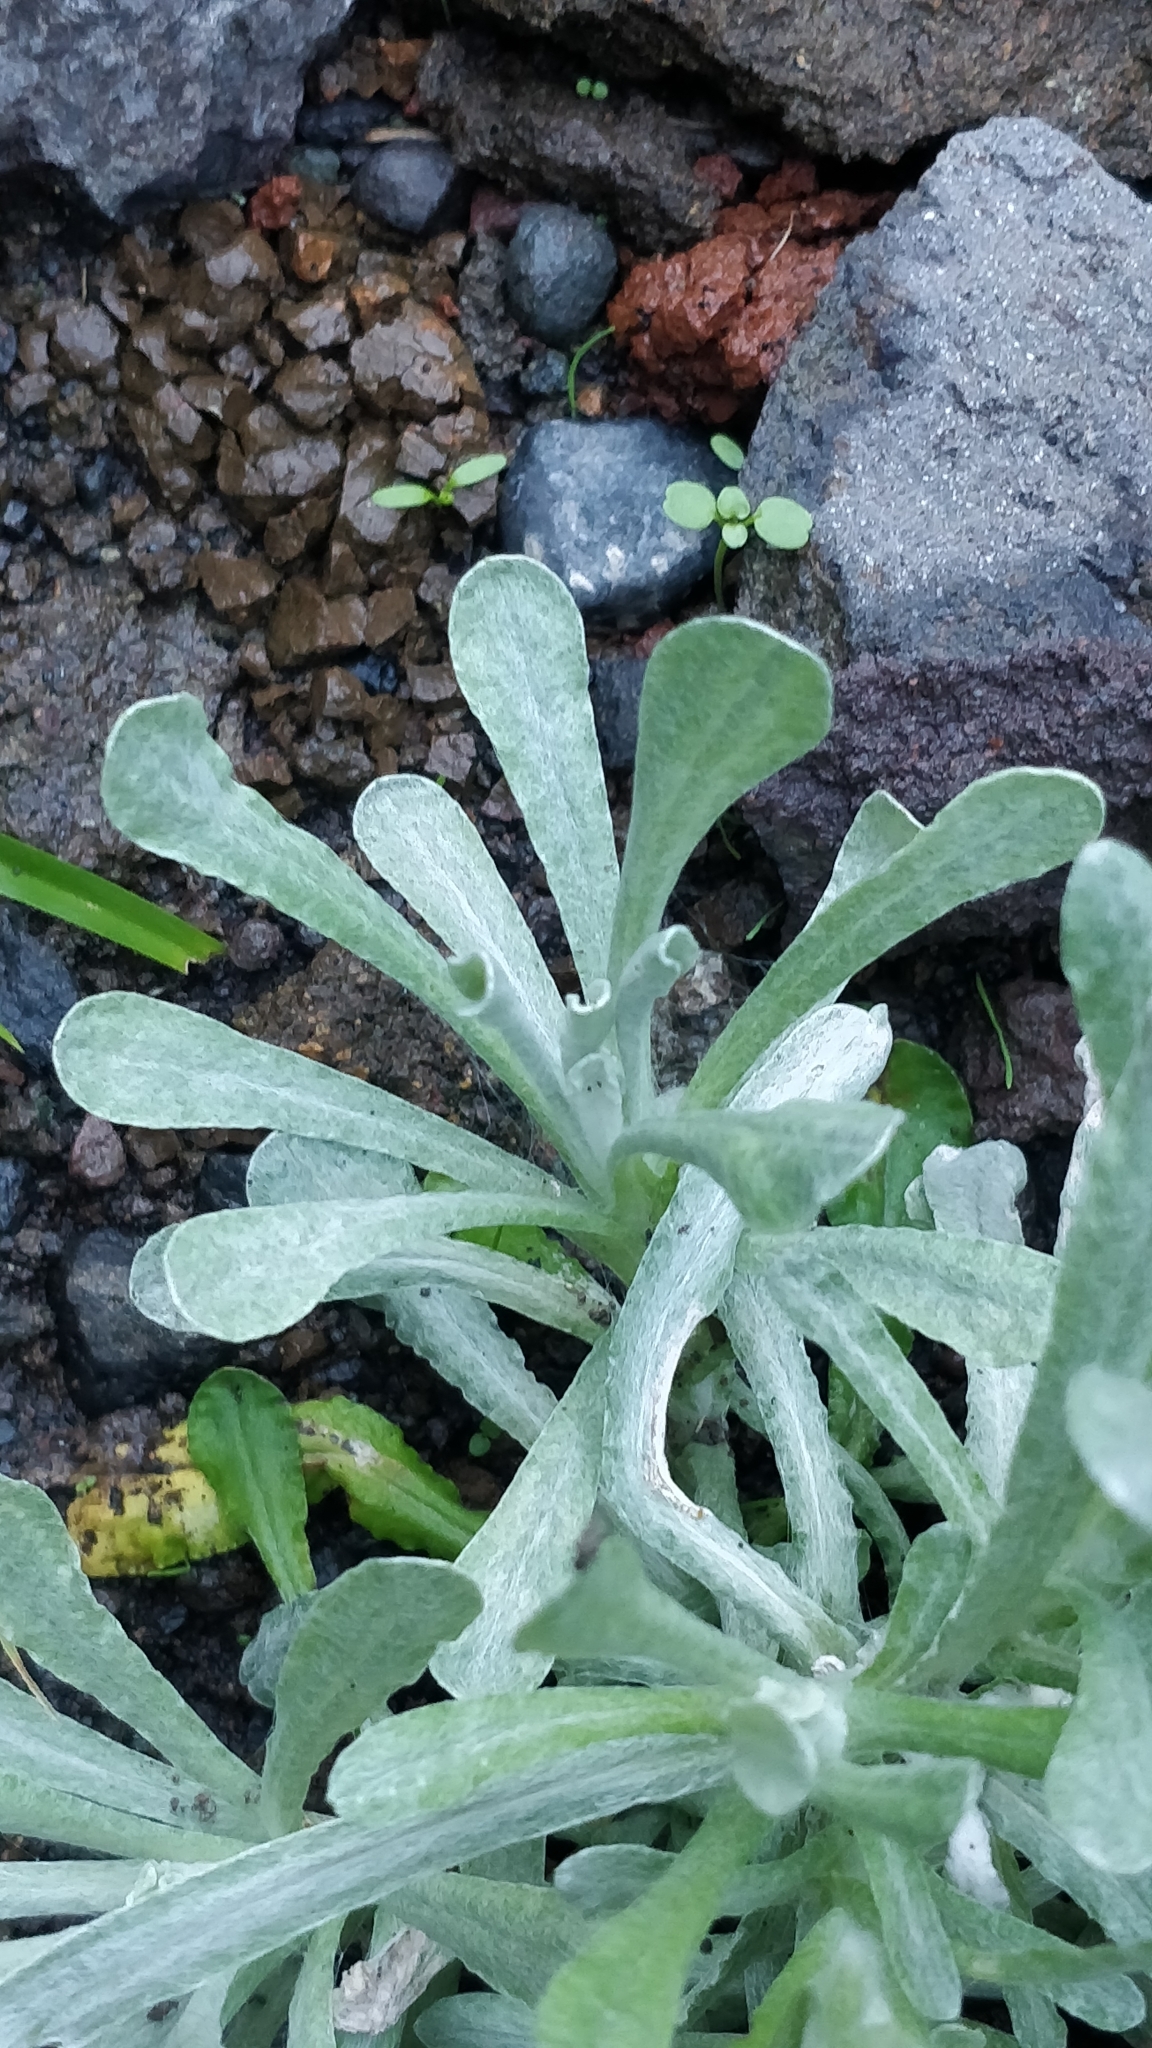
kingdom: Plantae
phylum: Tracheophyta
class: Magnoliopsida
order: Asterales
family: Asteraceae
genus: Helichrysum
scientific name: Helichrysum luteoalbum
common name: Daisy
